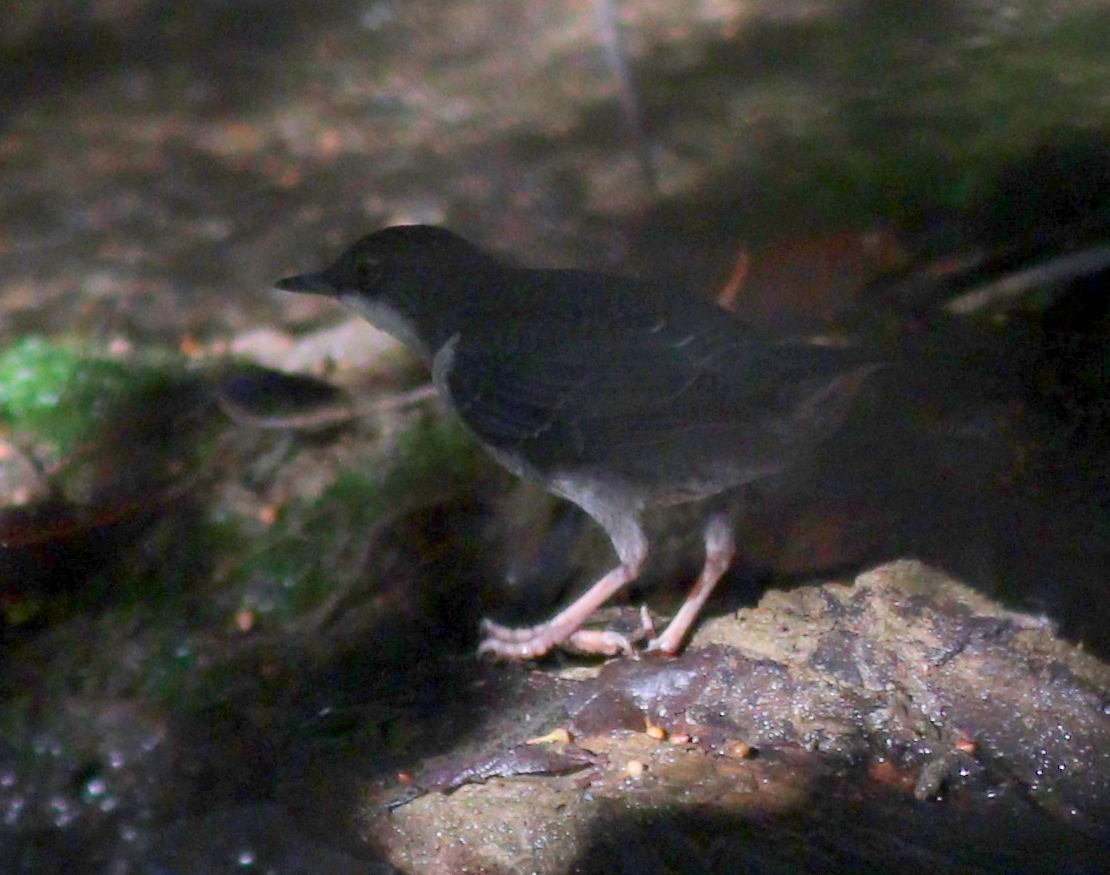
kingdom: Animalia
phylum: Chordata
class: Aves
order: Passeriformes
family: Cinclidae
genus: Cinclus
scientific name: Cinclus cinclus
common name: White-throated dipper
